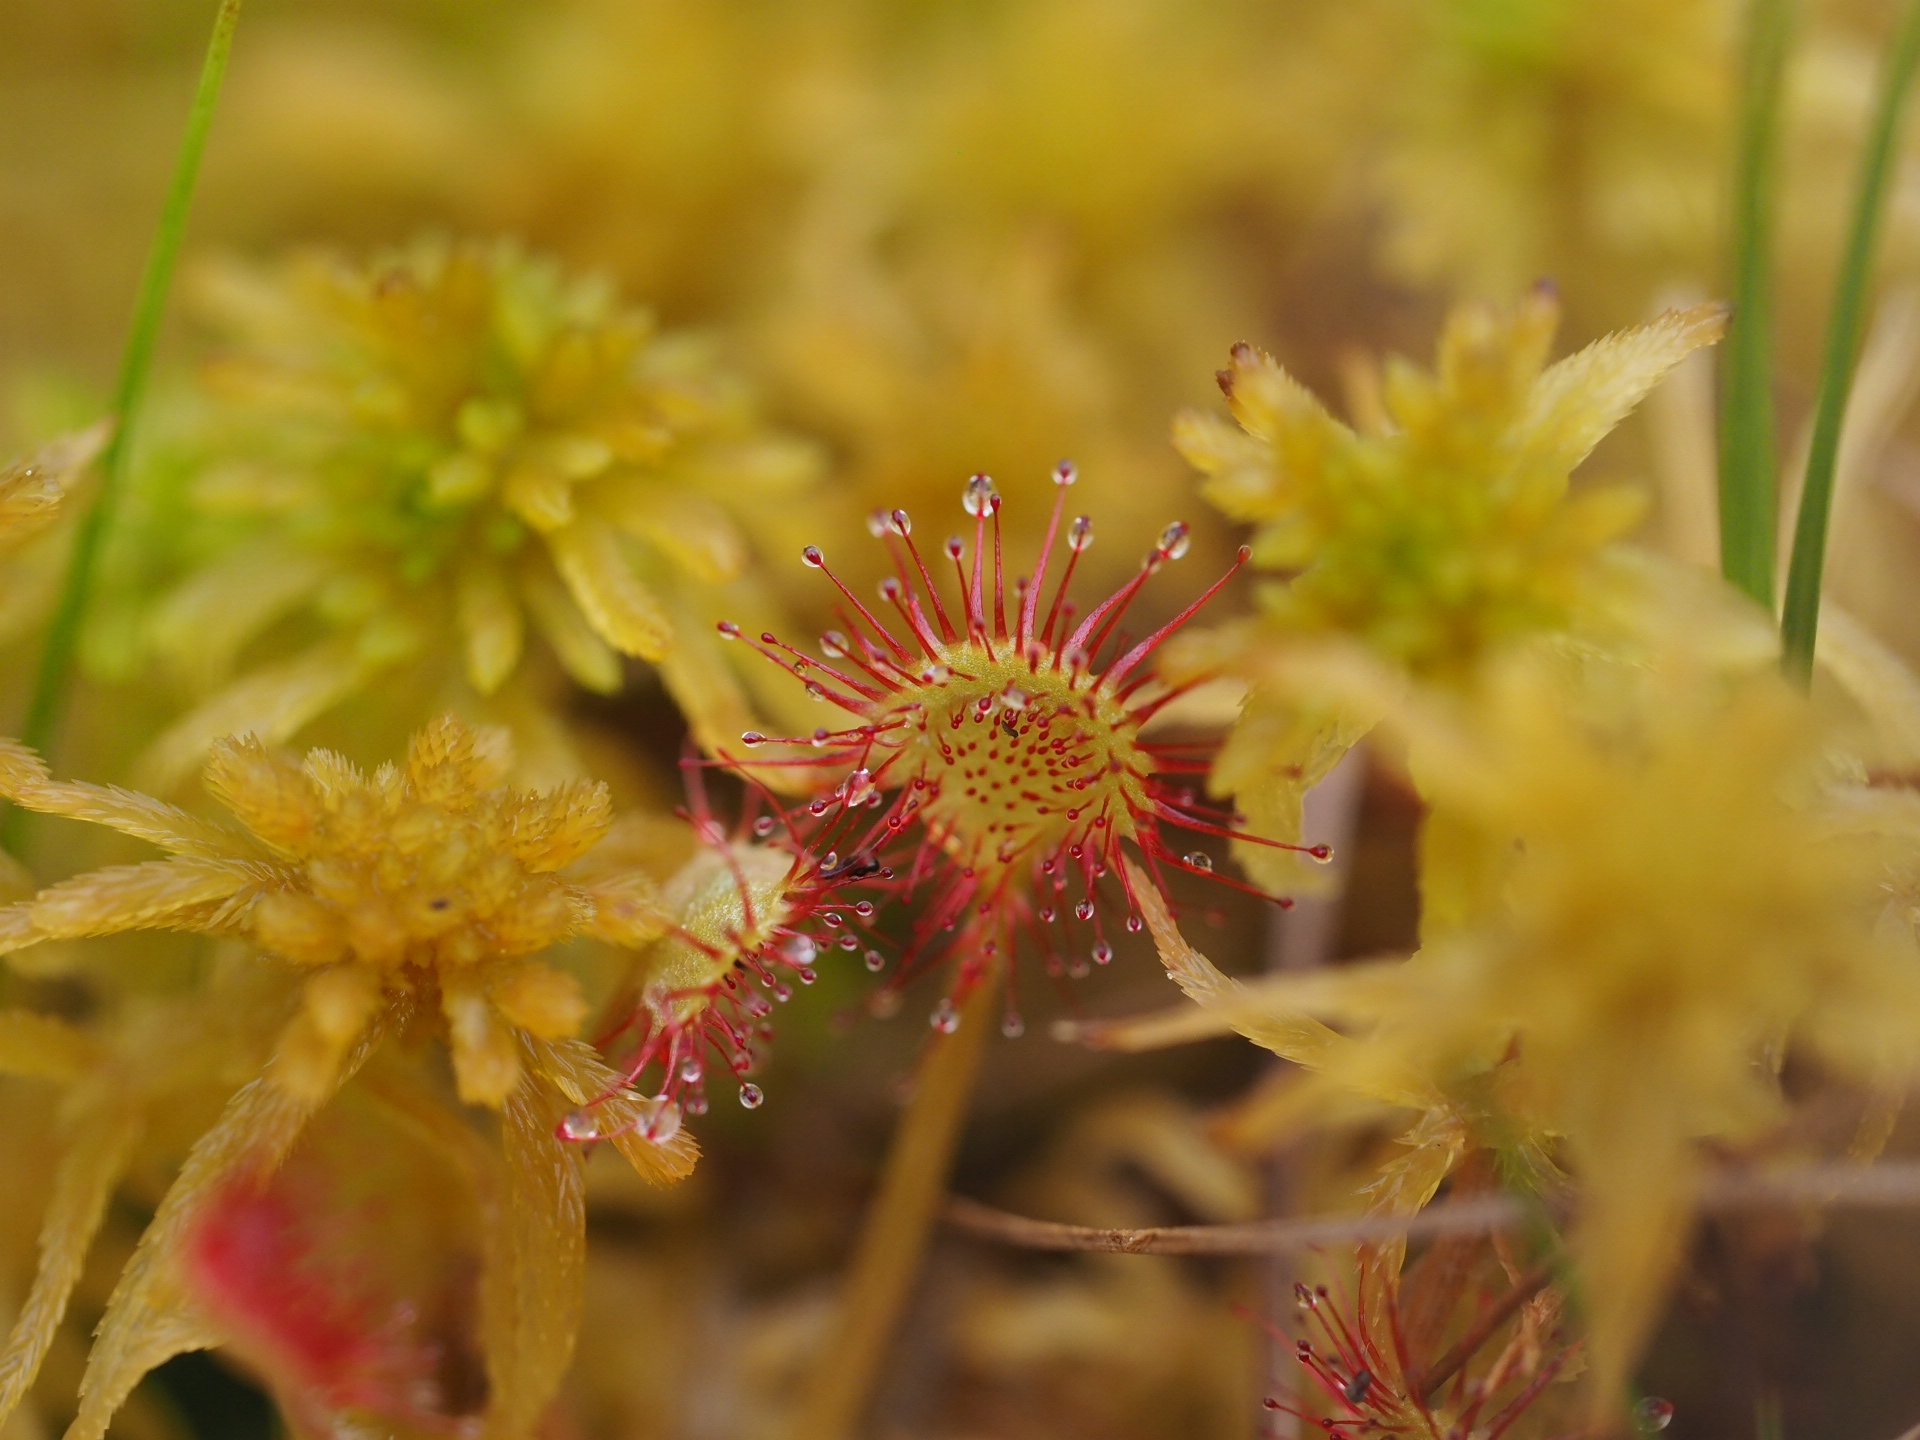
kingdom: Plantae
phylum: Tracheophyta
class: Magnoliopsida
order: Caryophyllales
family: Droseraceae
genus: Drosera
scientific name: Drosera rotundifolia
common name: Round-leaved sundew
